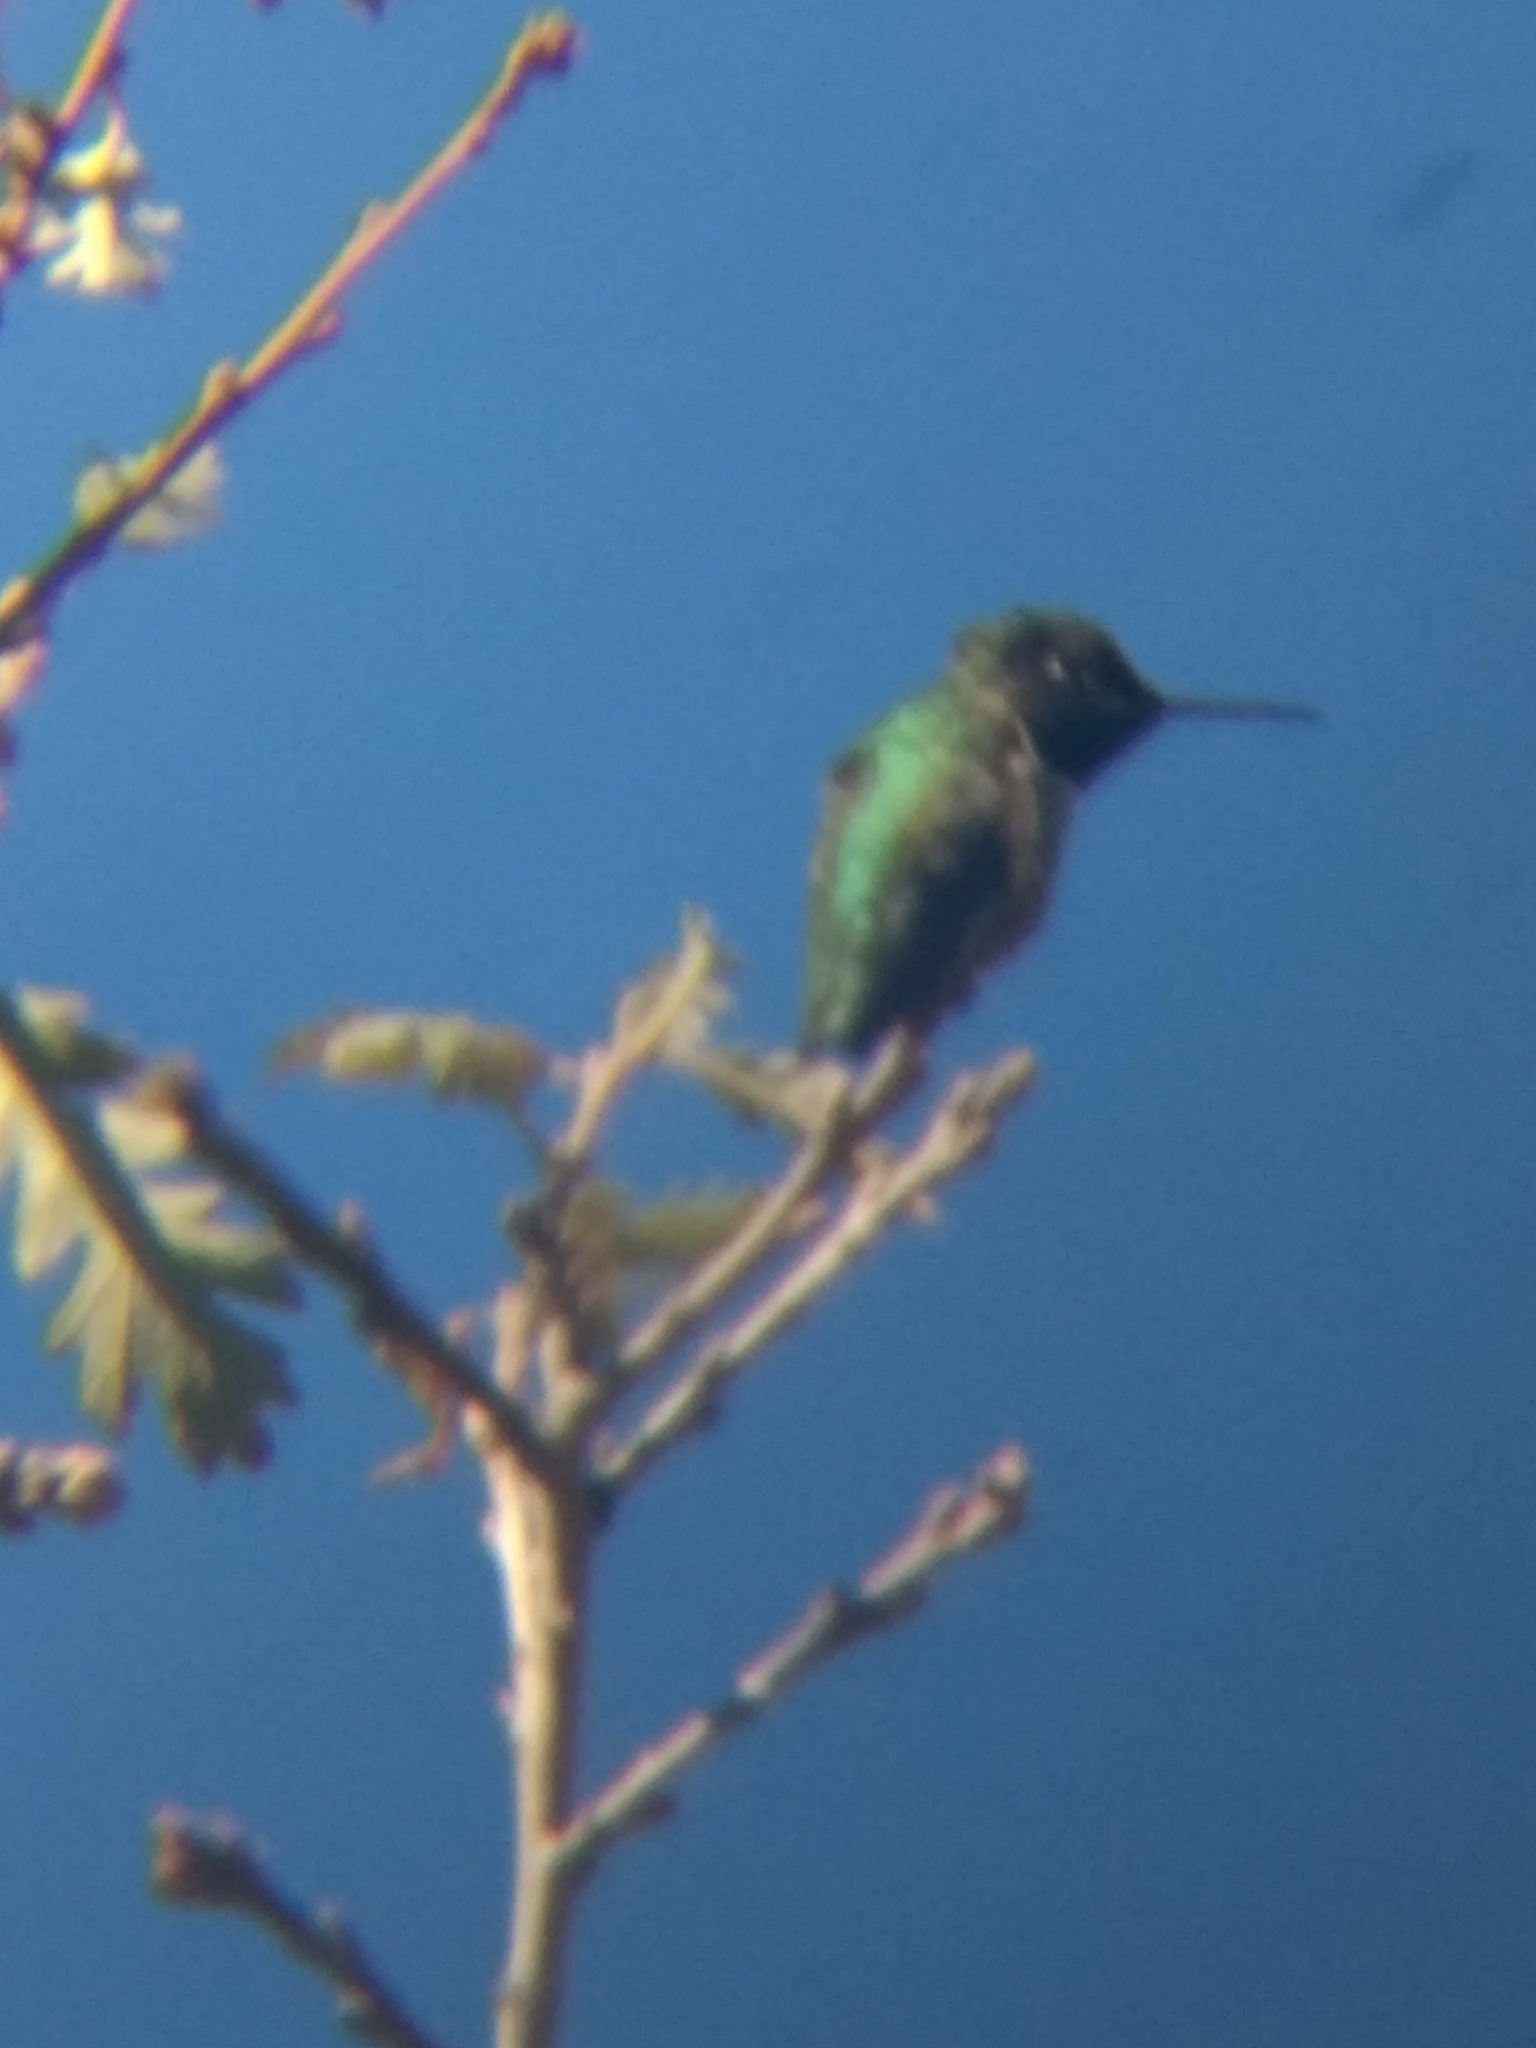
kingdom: Animalia
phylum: Chordata
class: Aves
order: Apodiformes
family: Trochilidae
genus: Calypte
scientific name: Calypte
